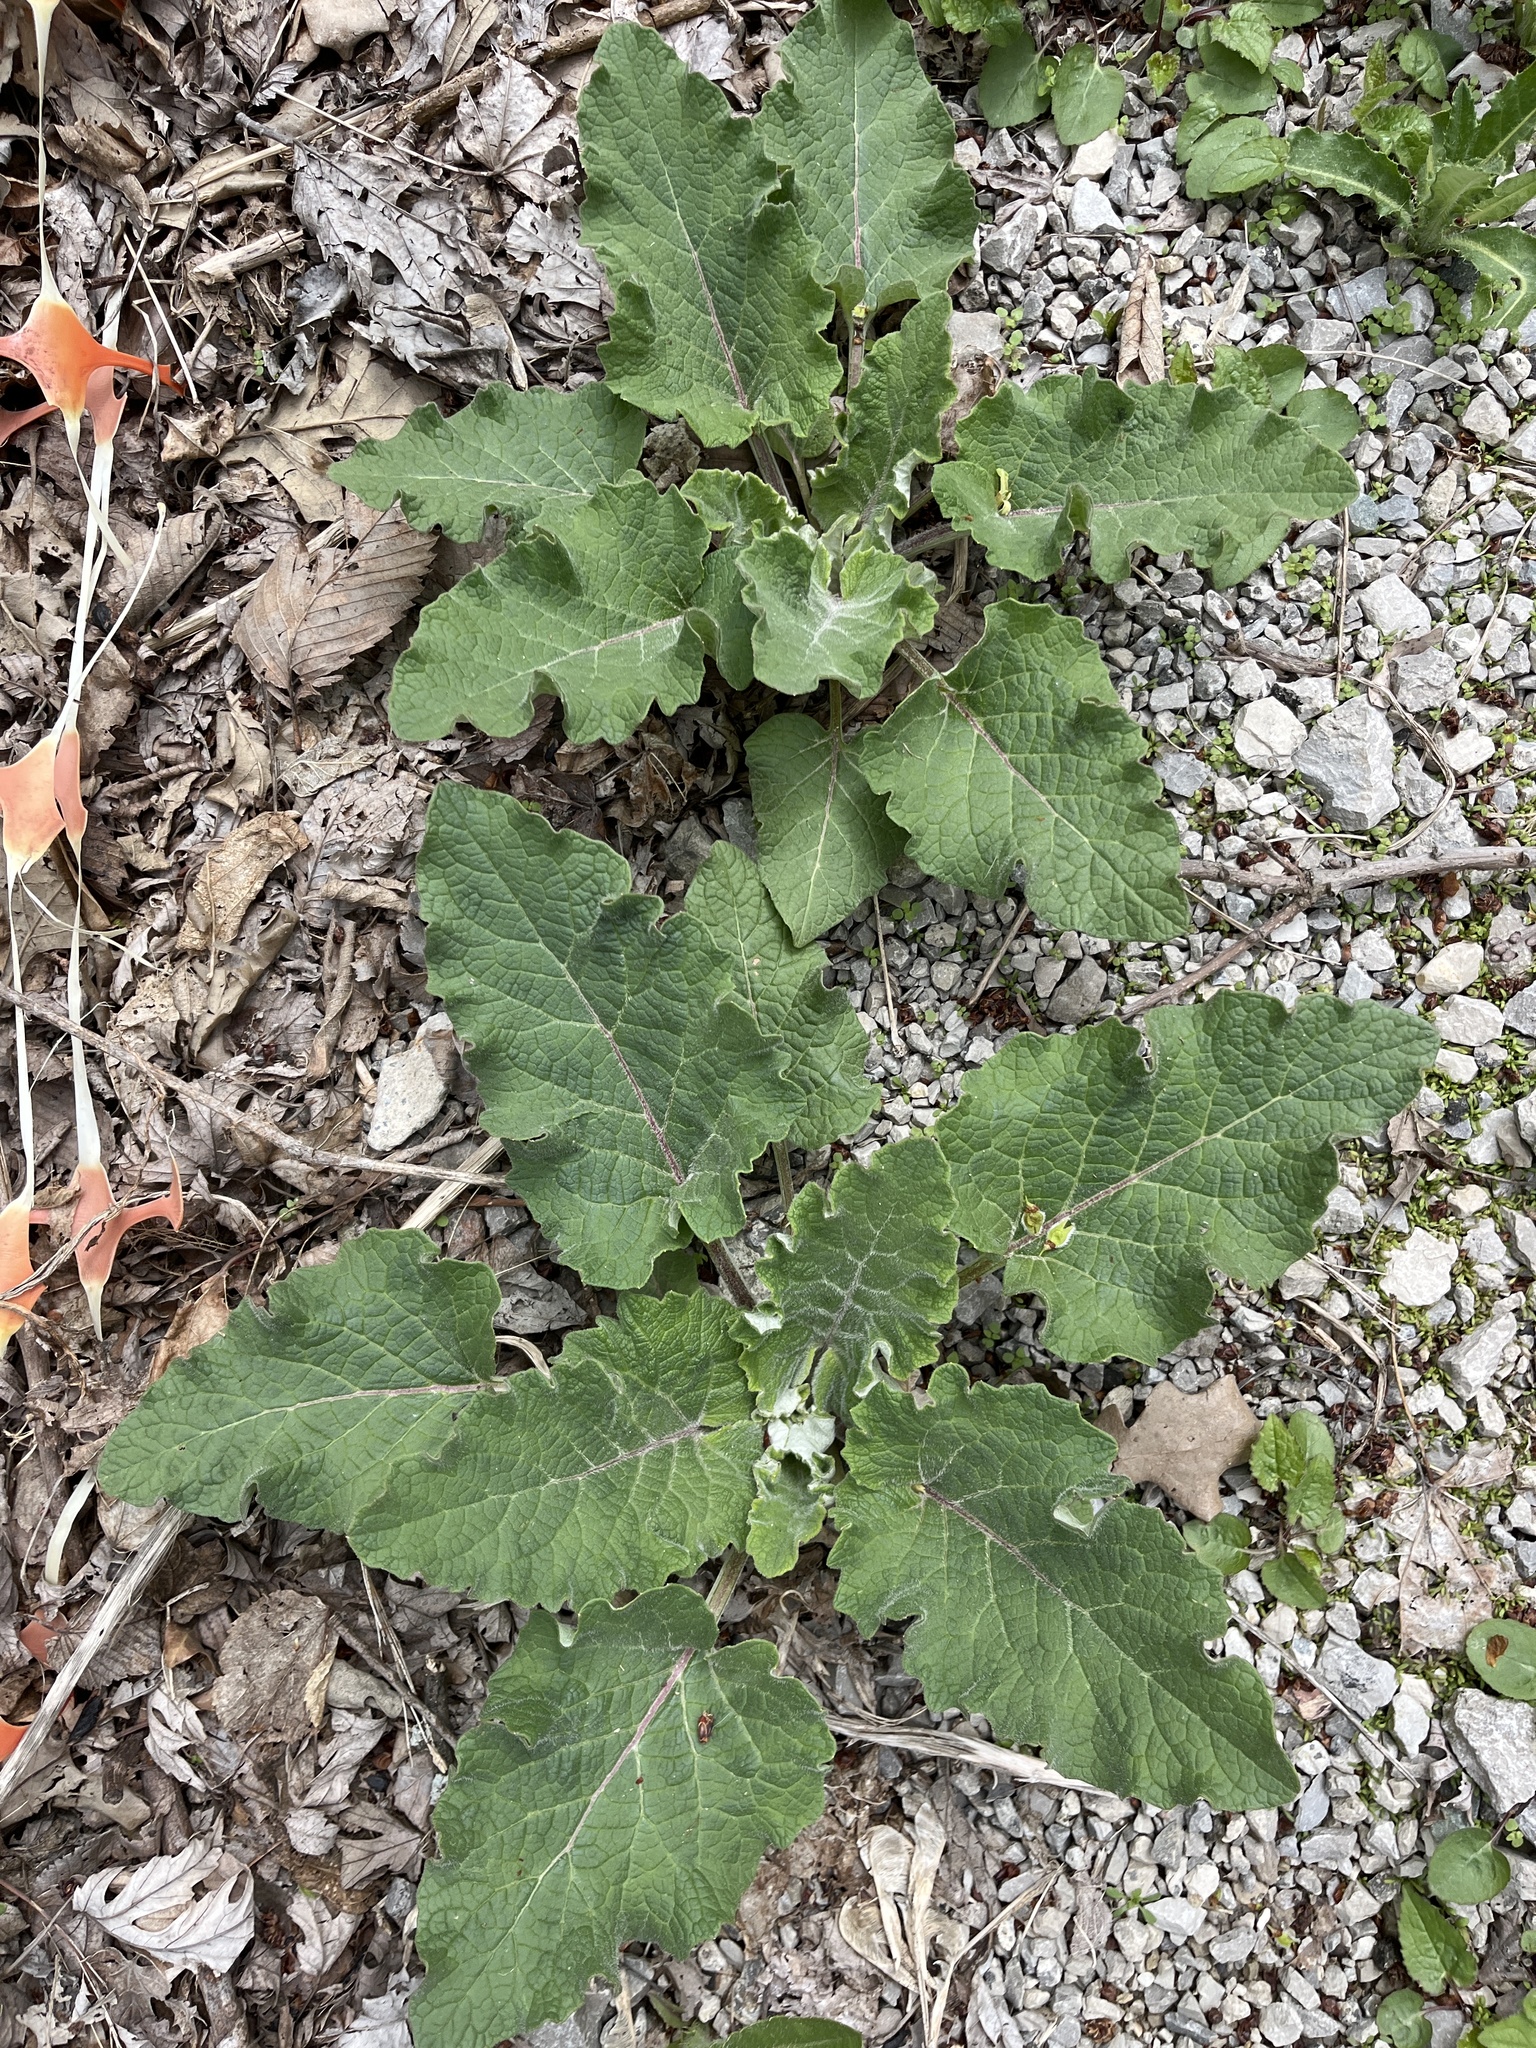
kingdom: Plantae
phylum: Tracheophyta
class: Magnoliopsida
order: Asterales
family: Asteraceae
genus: Arctium
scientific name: Arctium
